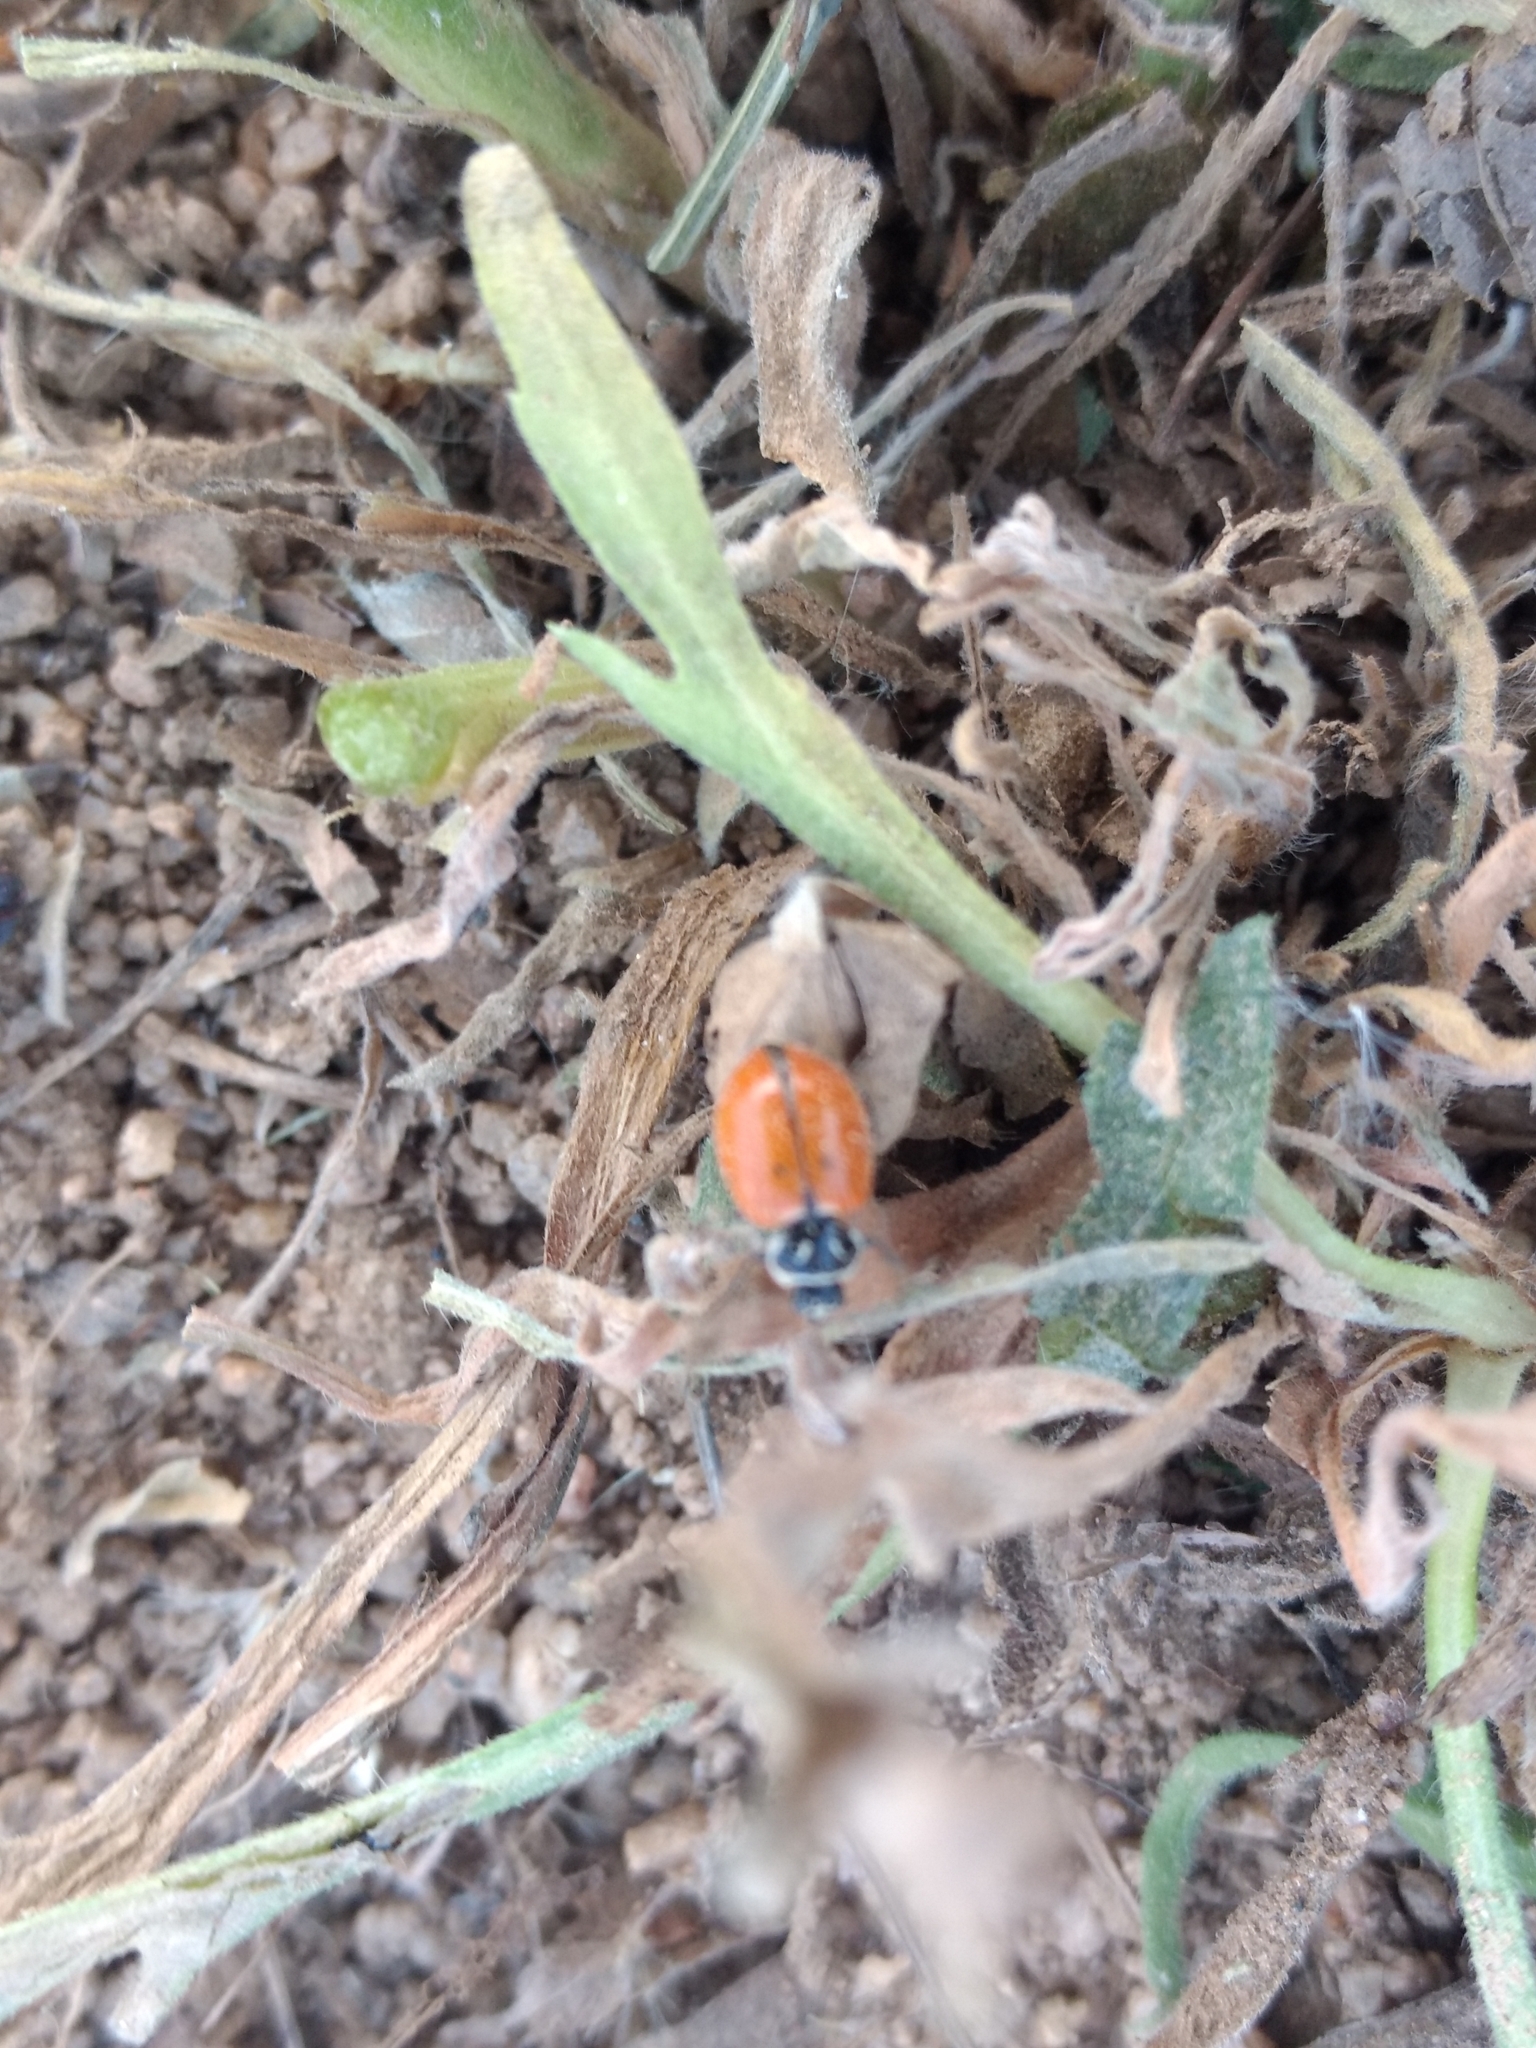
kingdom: Animalia
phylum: Arthropoda
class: Insecta
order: Coleoptera
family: Coccinellidae
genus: Hippodamia
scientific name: Hippodamia convergens
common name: Convergent lady beetle
